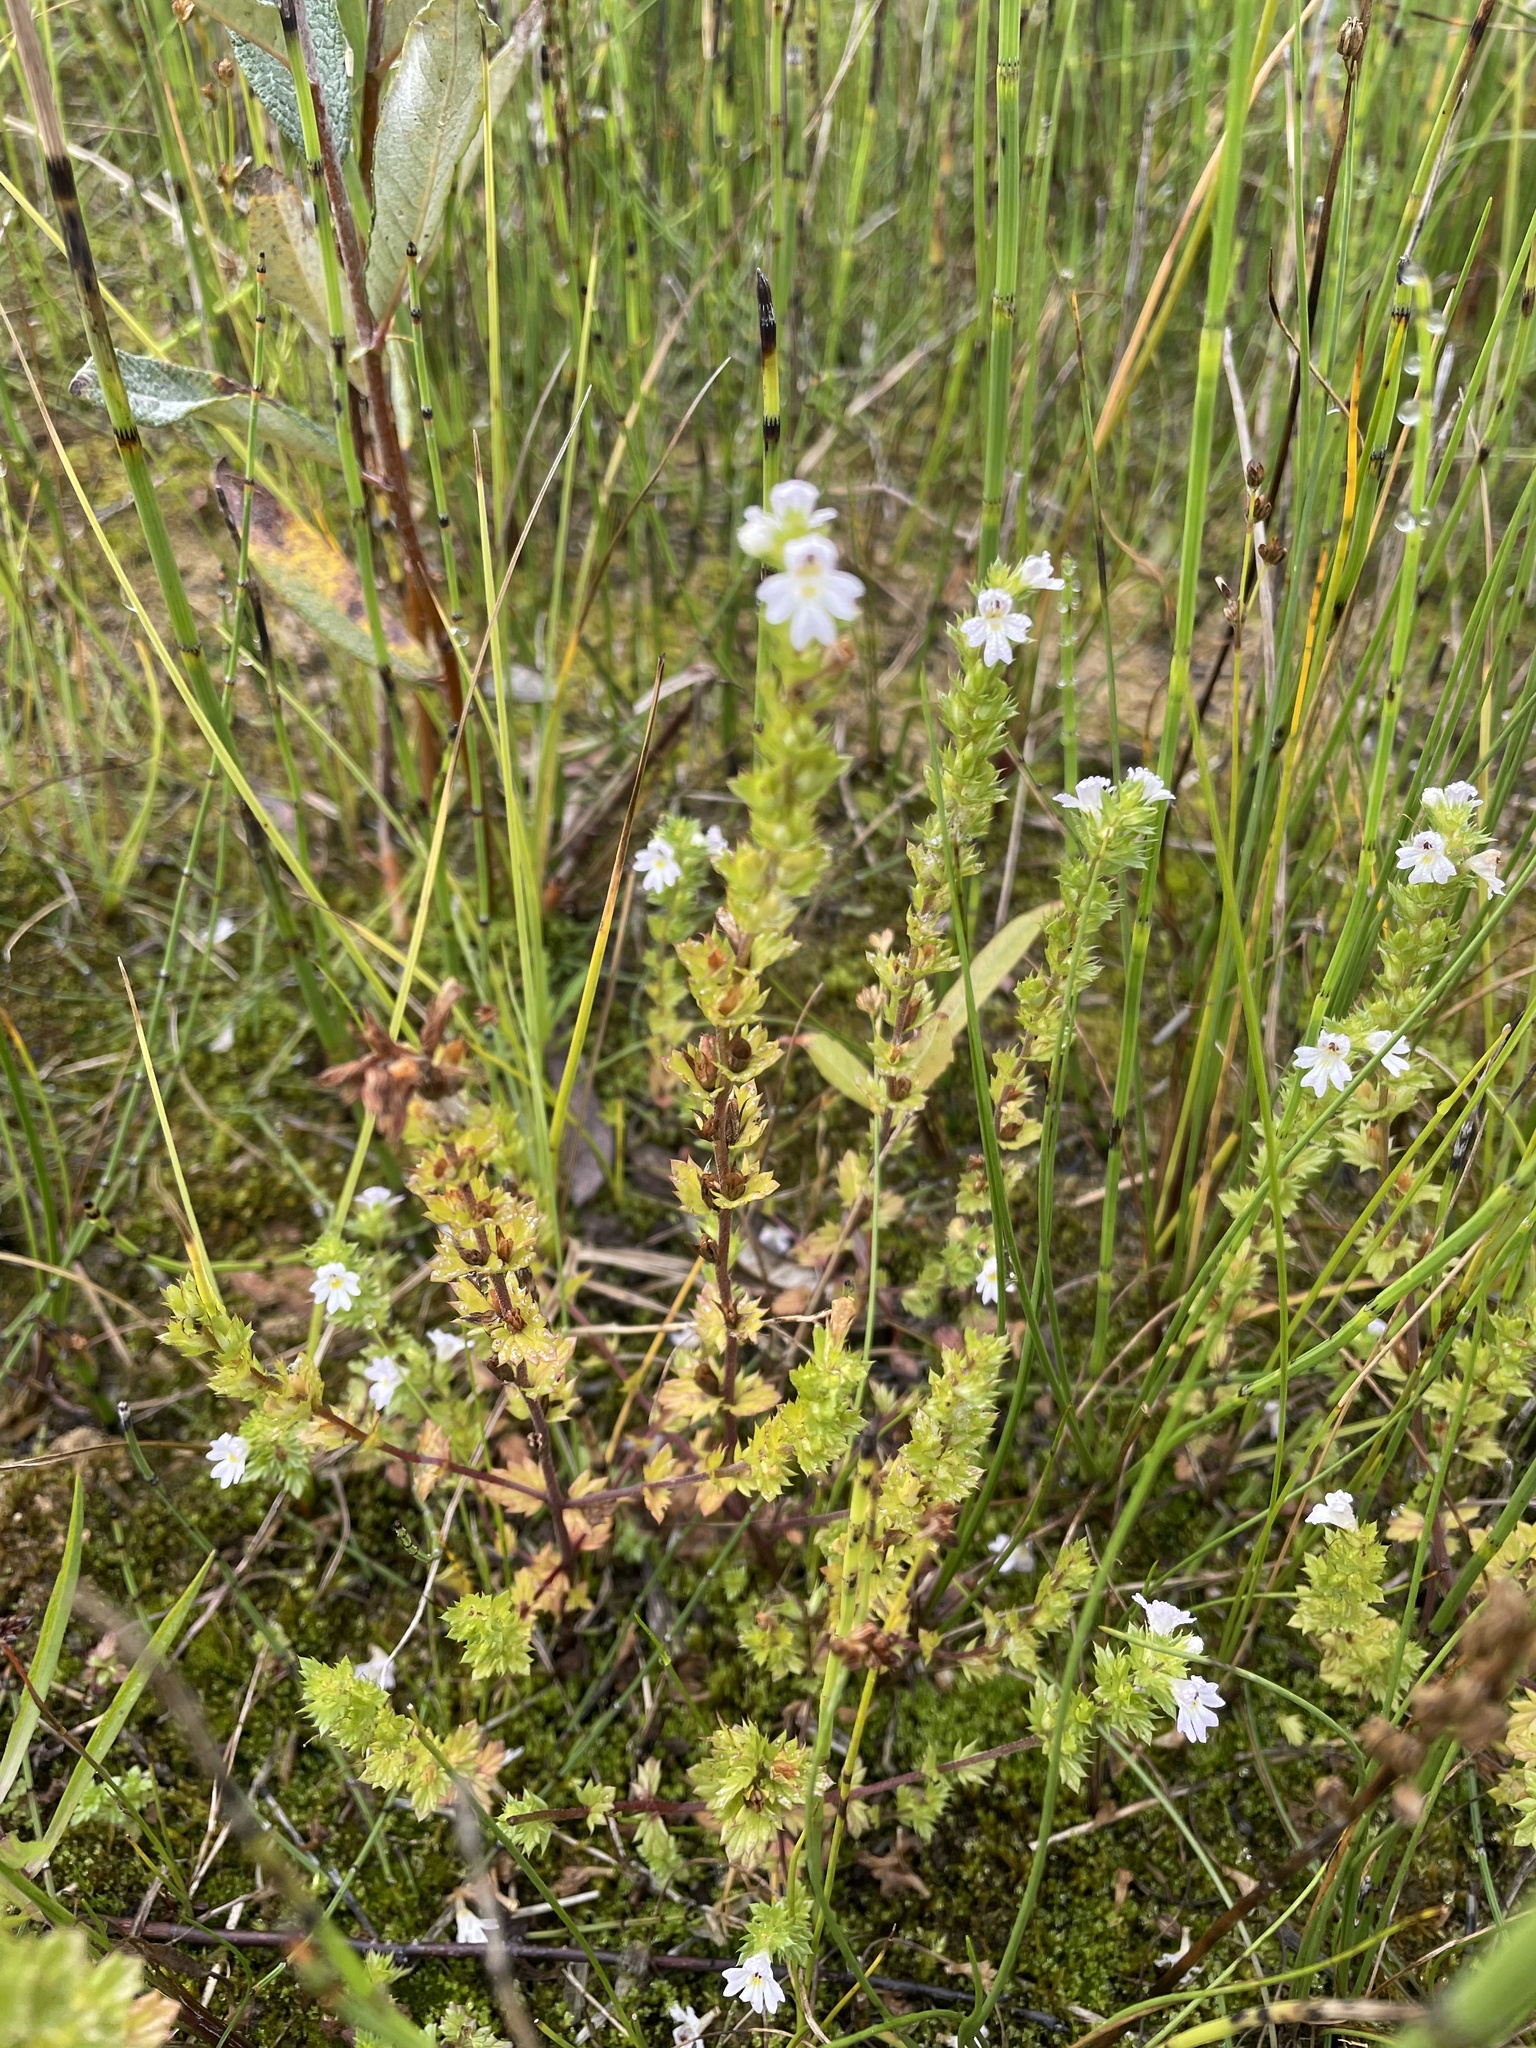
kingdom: Plantae
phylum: Tracheophyta
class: Magnoliopsida
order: Lamiales
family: Orobanchaceae
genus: Euphrasia
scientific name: Euphrasia nemorosa
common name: Common eyebright
